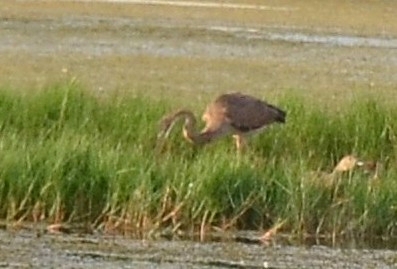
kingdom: Animalia
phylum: Chordata
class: Aves
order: Pelecaniformes
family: Ardeidae
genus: Ardea
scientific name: Ardea purpurea
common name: Purple heron
